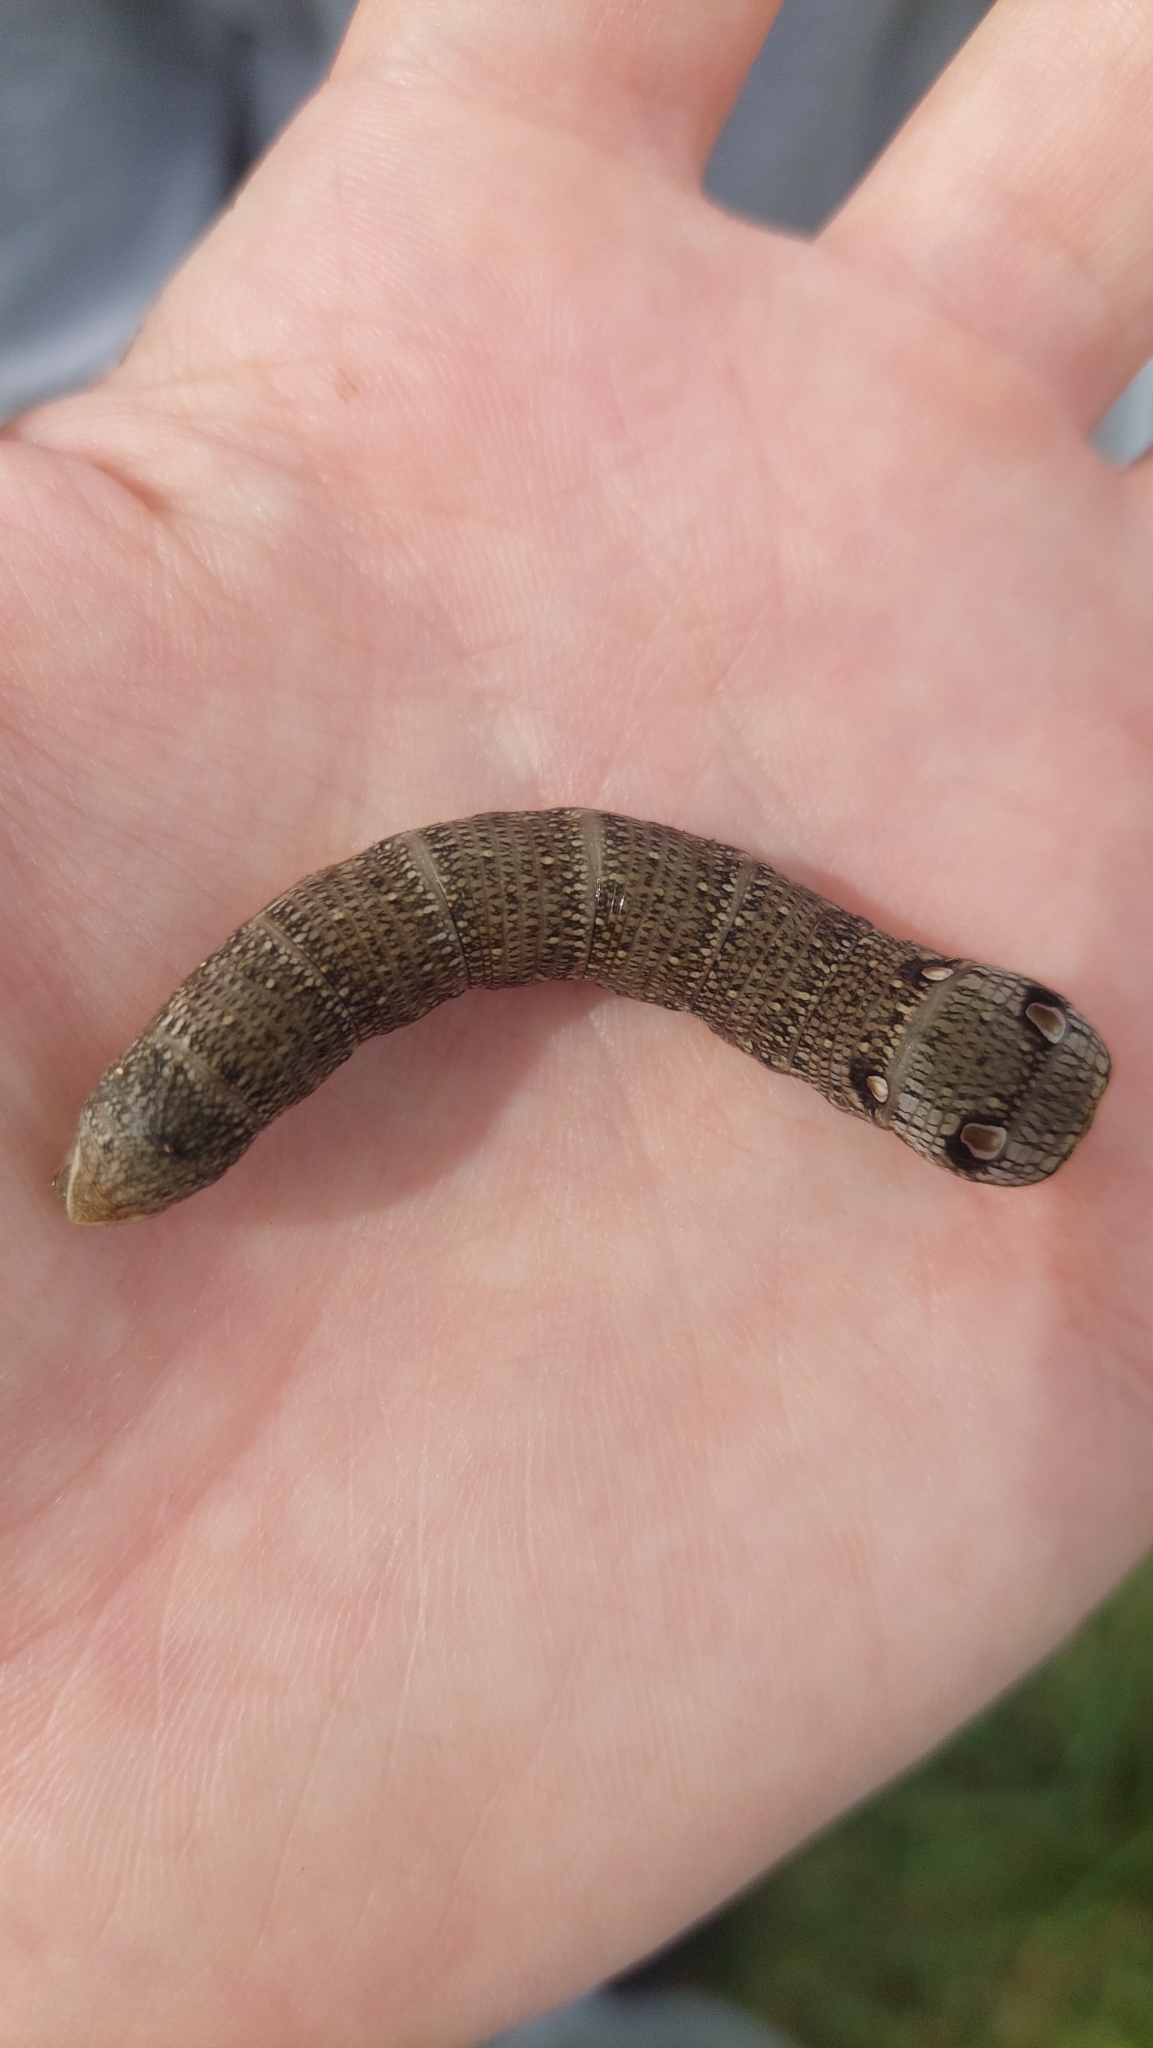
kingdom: Animalia
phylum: Arthropoda
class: Insecta
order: Lepidoptera
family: Sphingidae
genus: Deilephila
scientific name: Deilephila porcellus
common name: Small elephant hawk-moth
